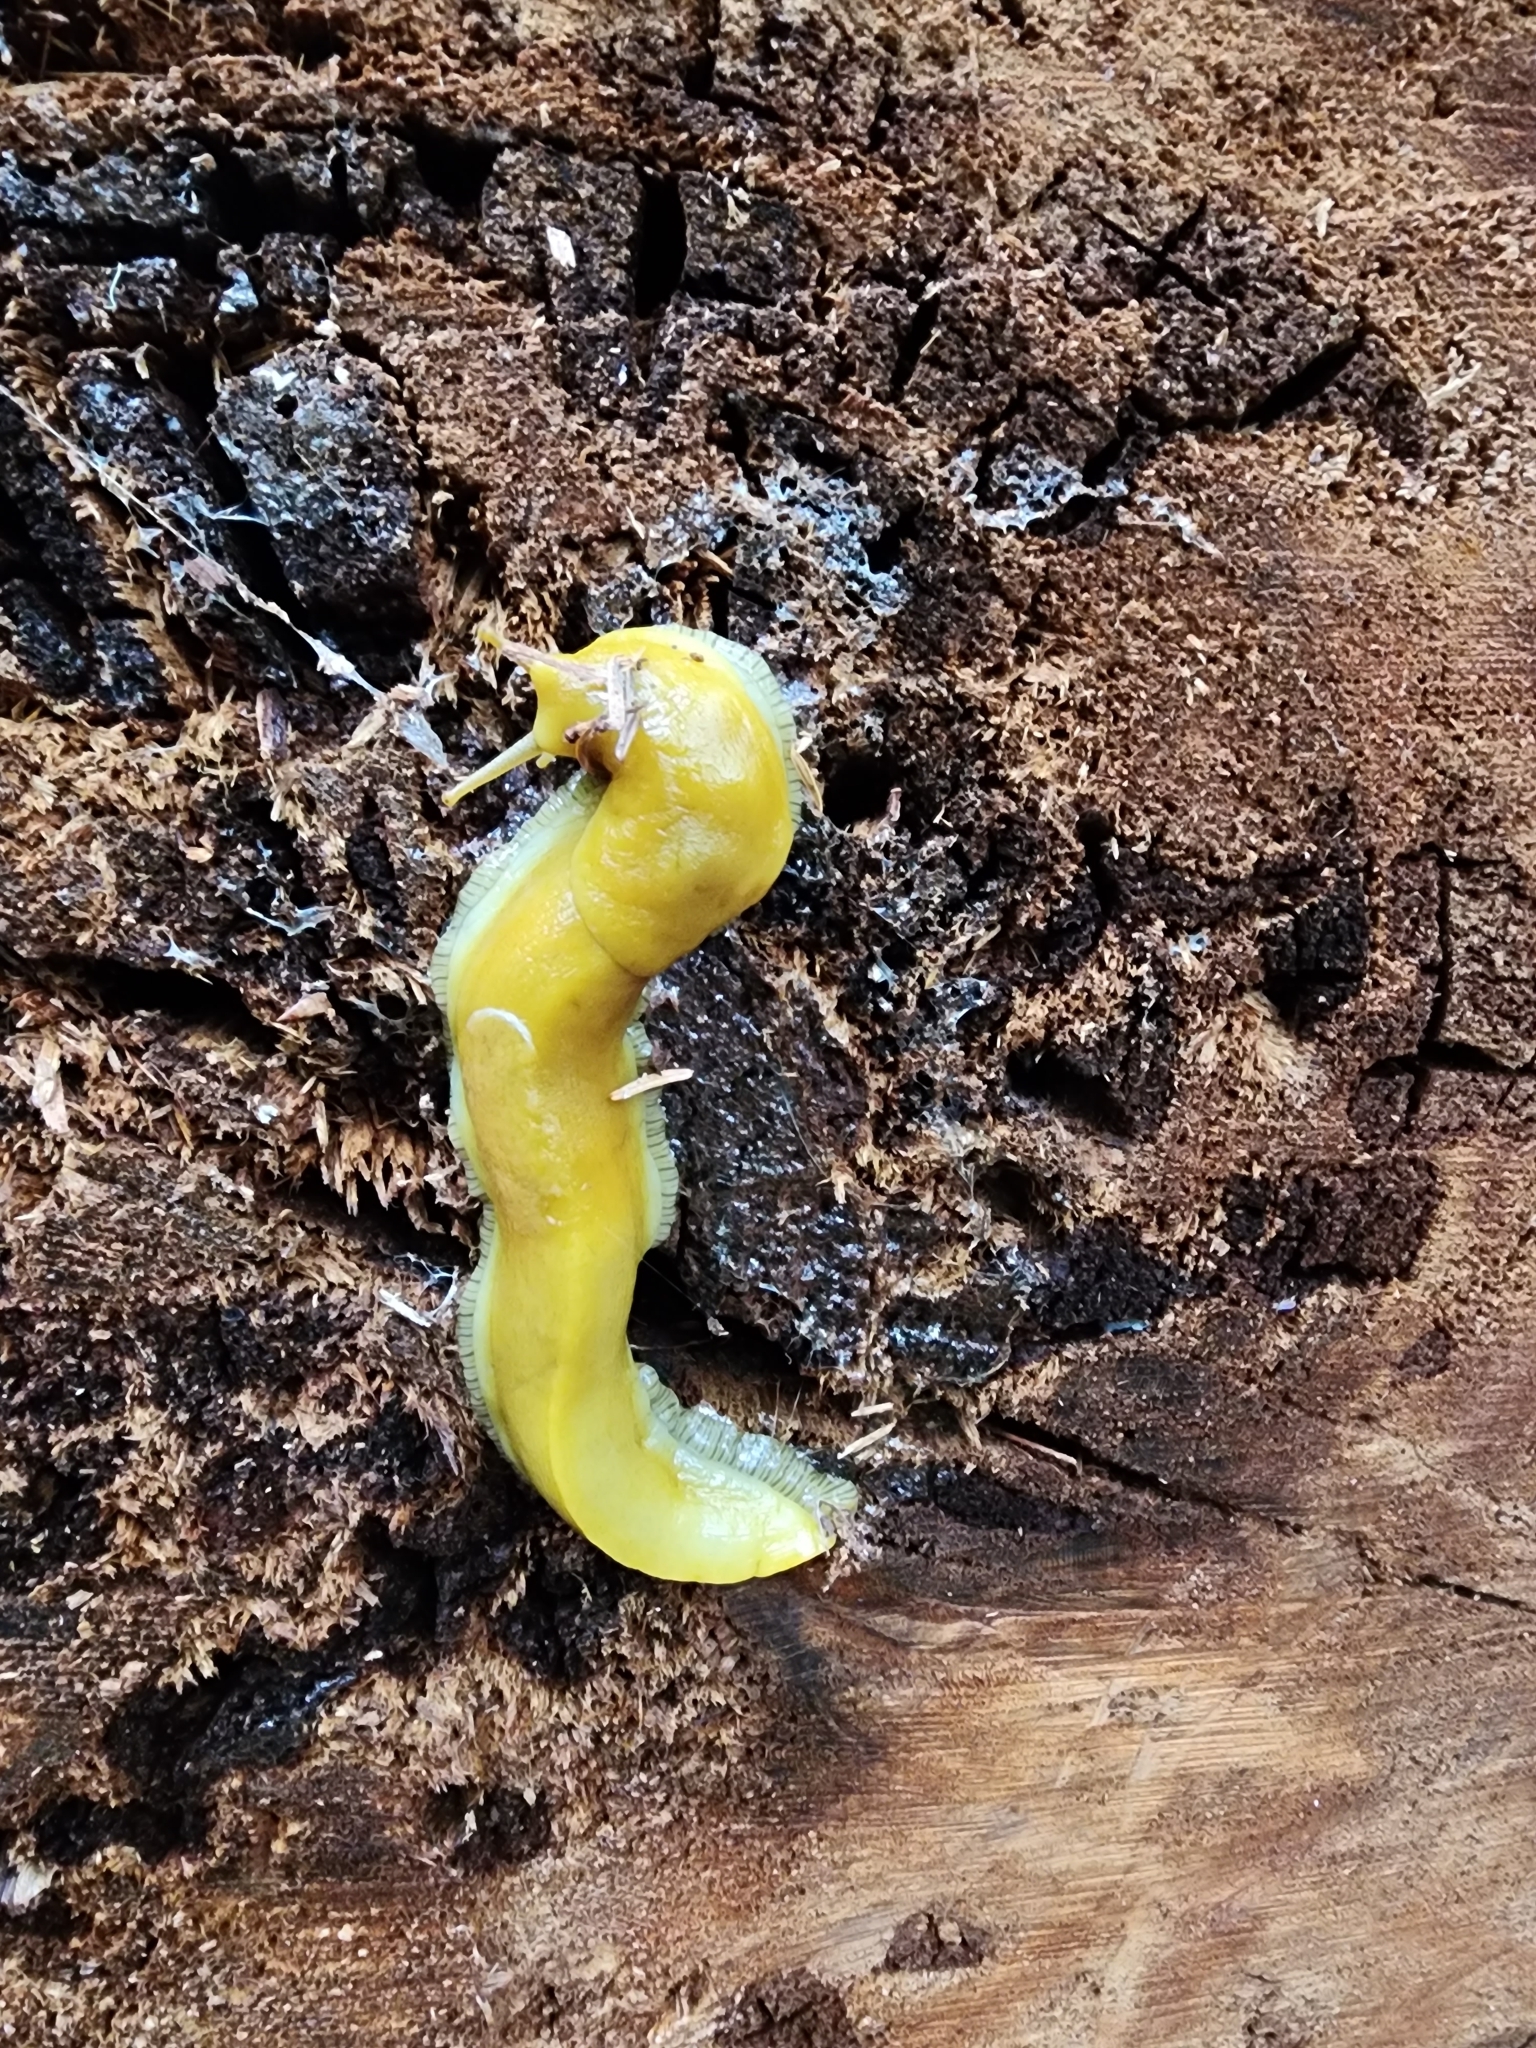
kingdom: Animalia
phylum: Mollusca
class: Gastropoda
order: Stylommatophora
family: Ariolimacidae
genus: Ariolimax
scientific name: Ariolimax buttoni
